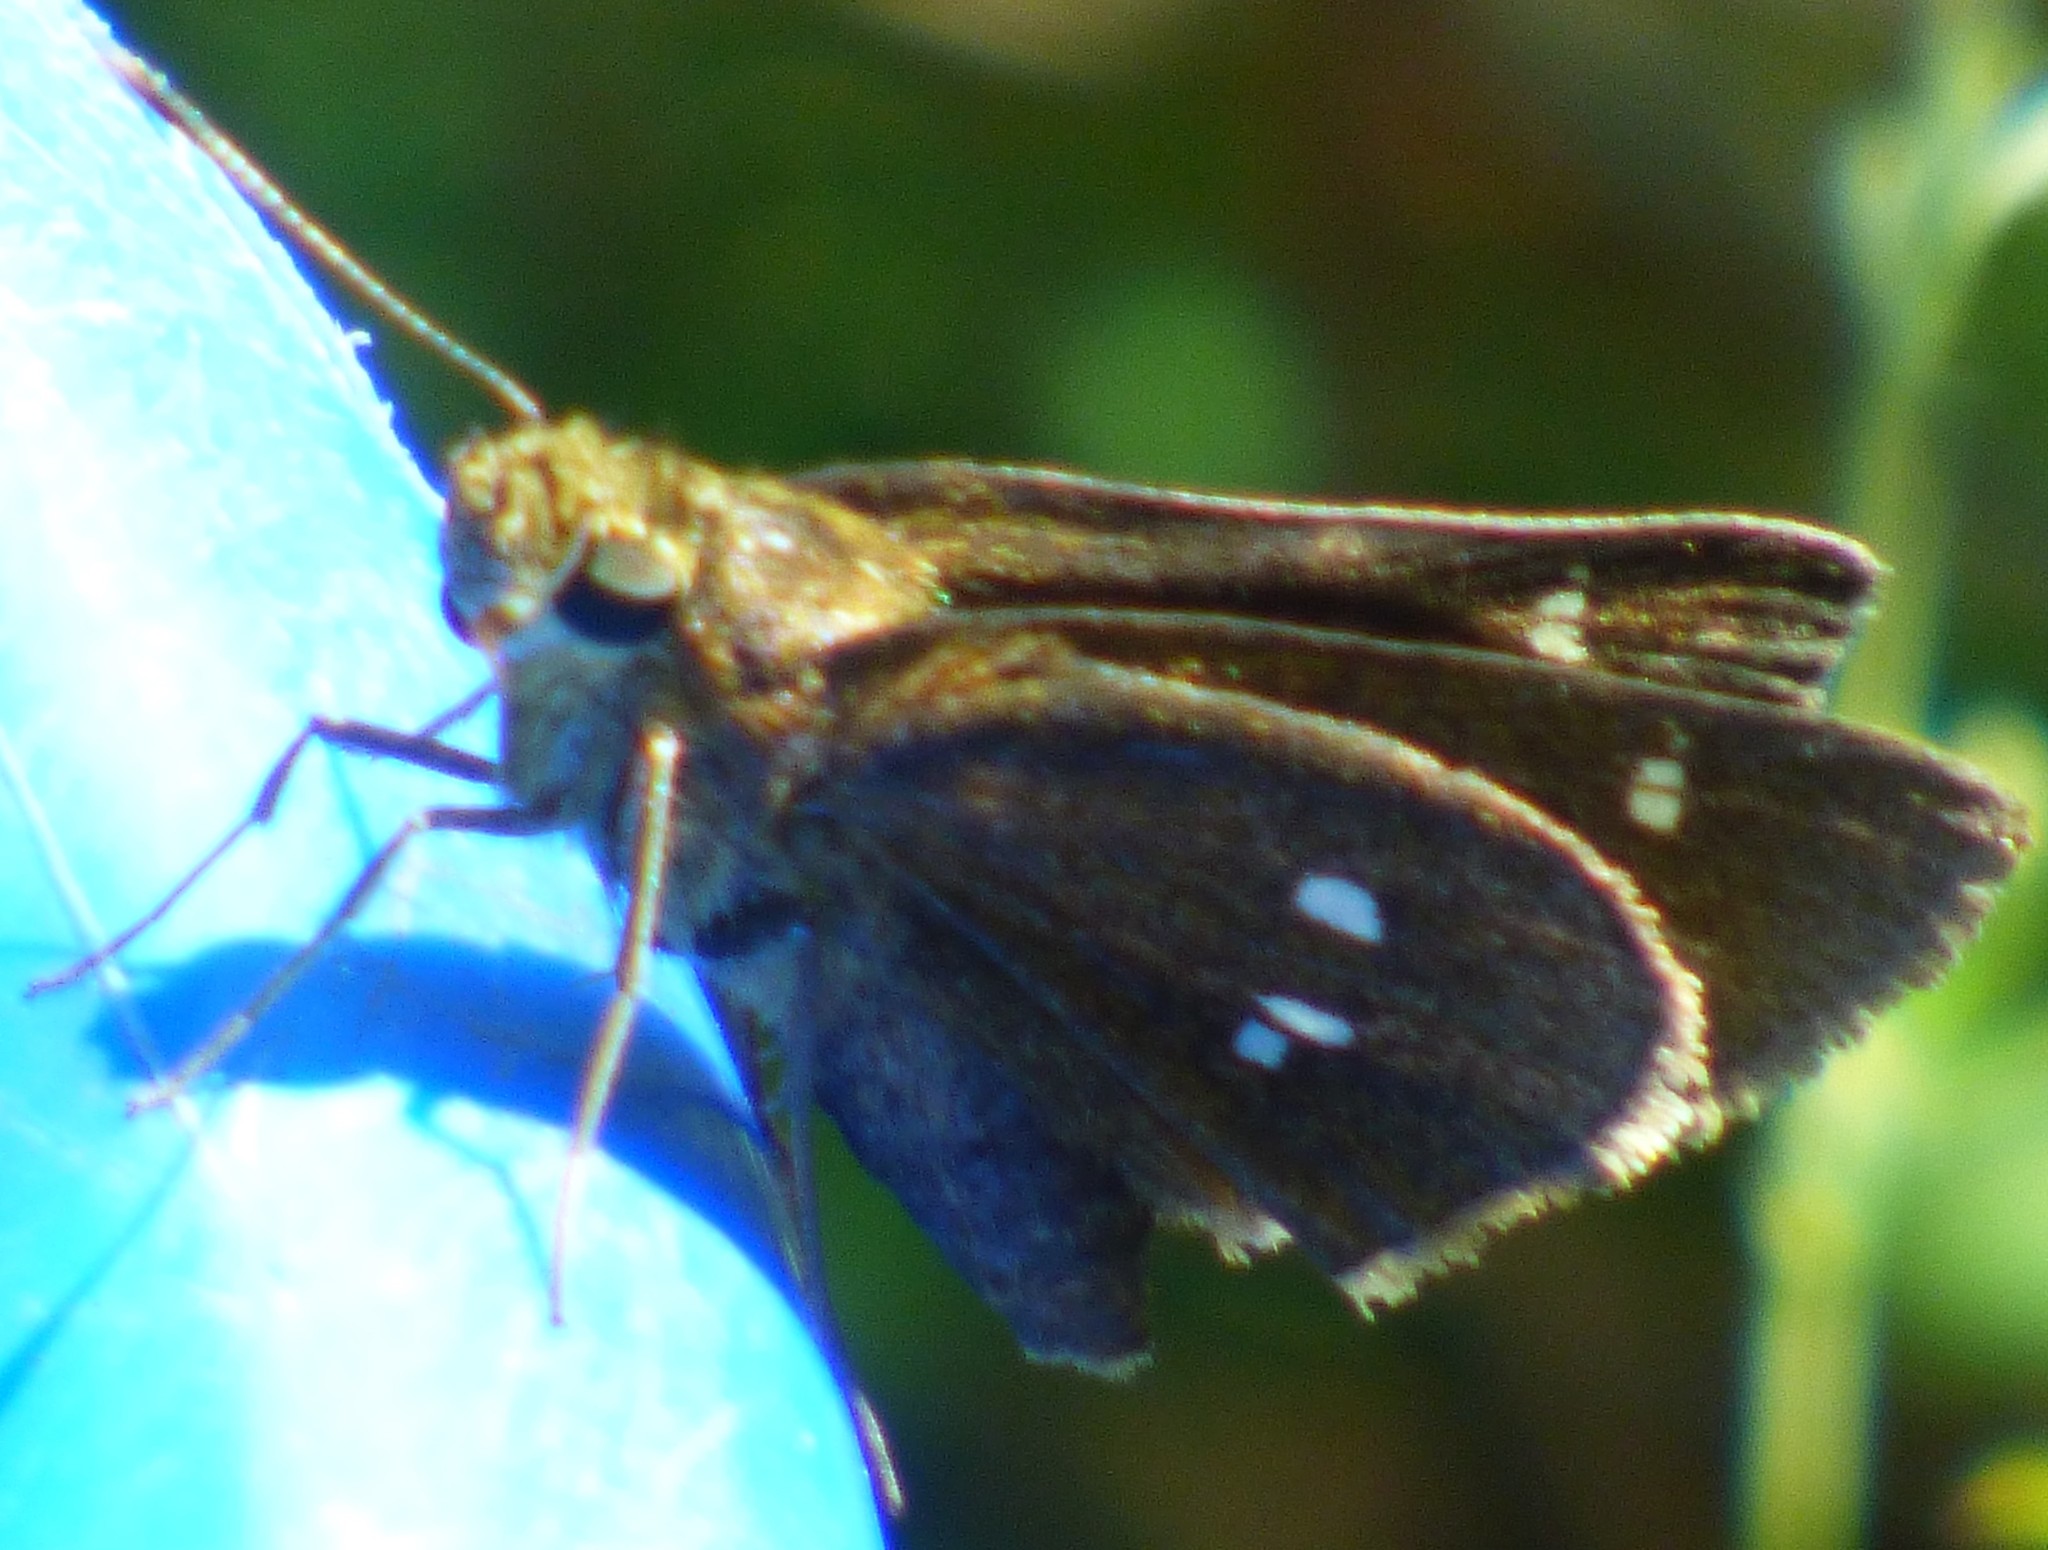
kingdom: Animalia
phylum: Arthropoda
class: Insecta
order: Lepidoptera
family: Hesperiidae
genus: Lerema
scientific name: Lerema accius
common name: Clouded skipper
